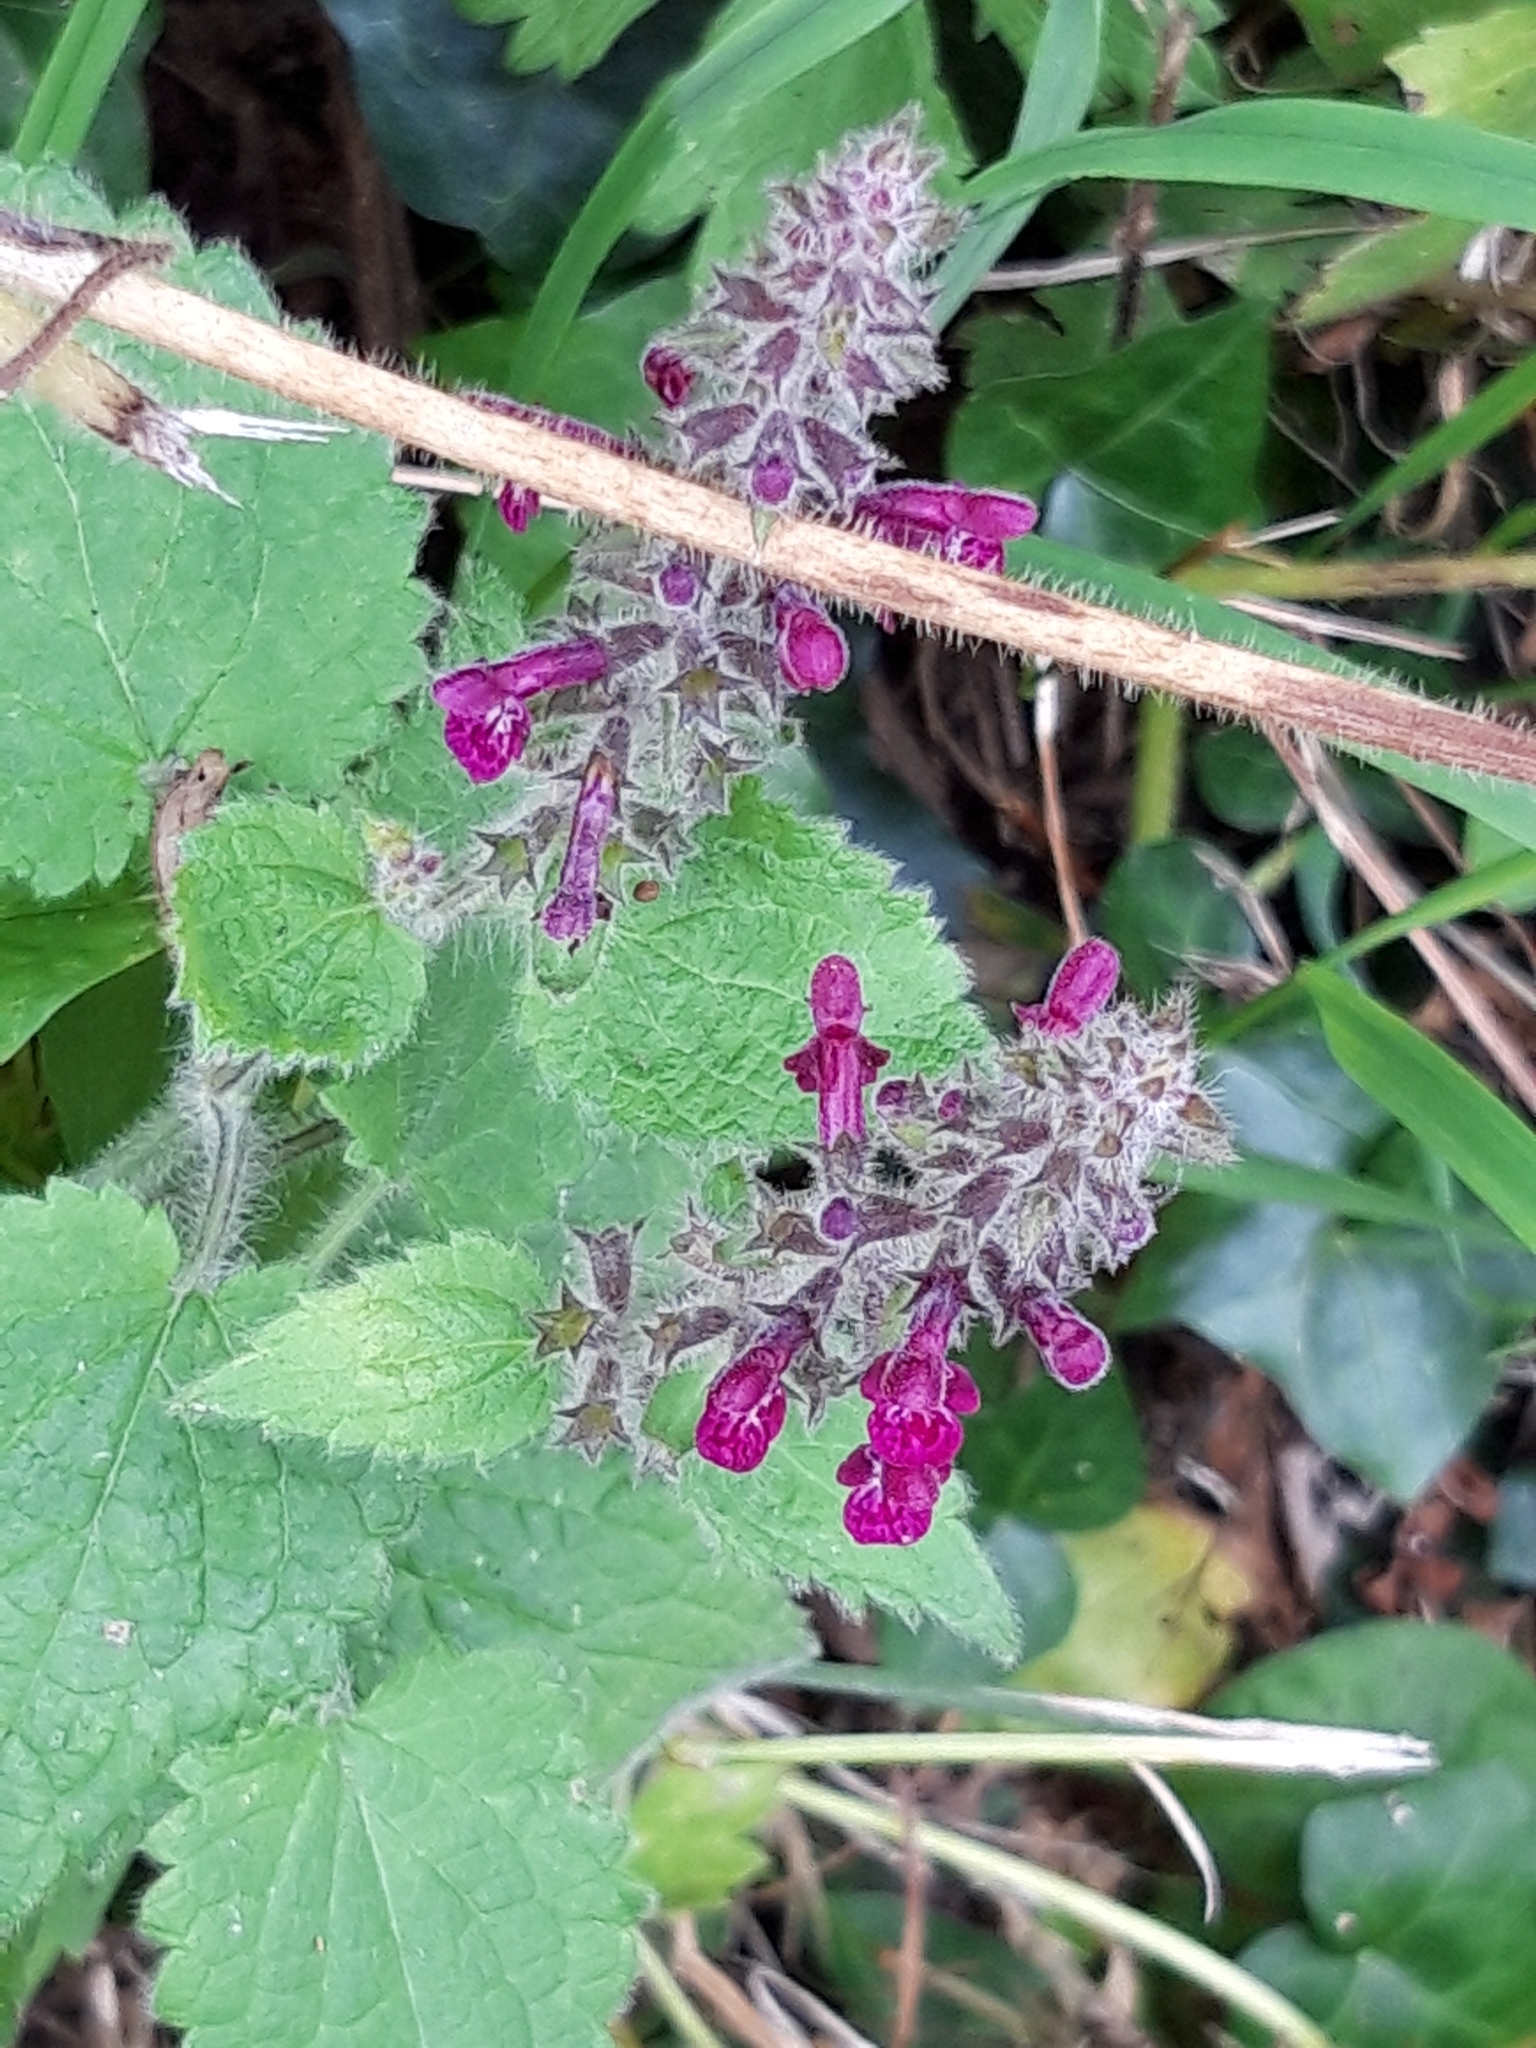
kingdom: Plantae
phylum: Tracheophyta
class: Magnoliopsida
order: Lamiales
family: Lamiaceae
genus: Stachys
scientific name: Stachys sylvatica
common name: Hedge woundwort
